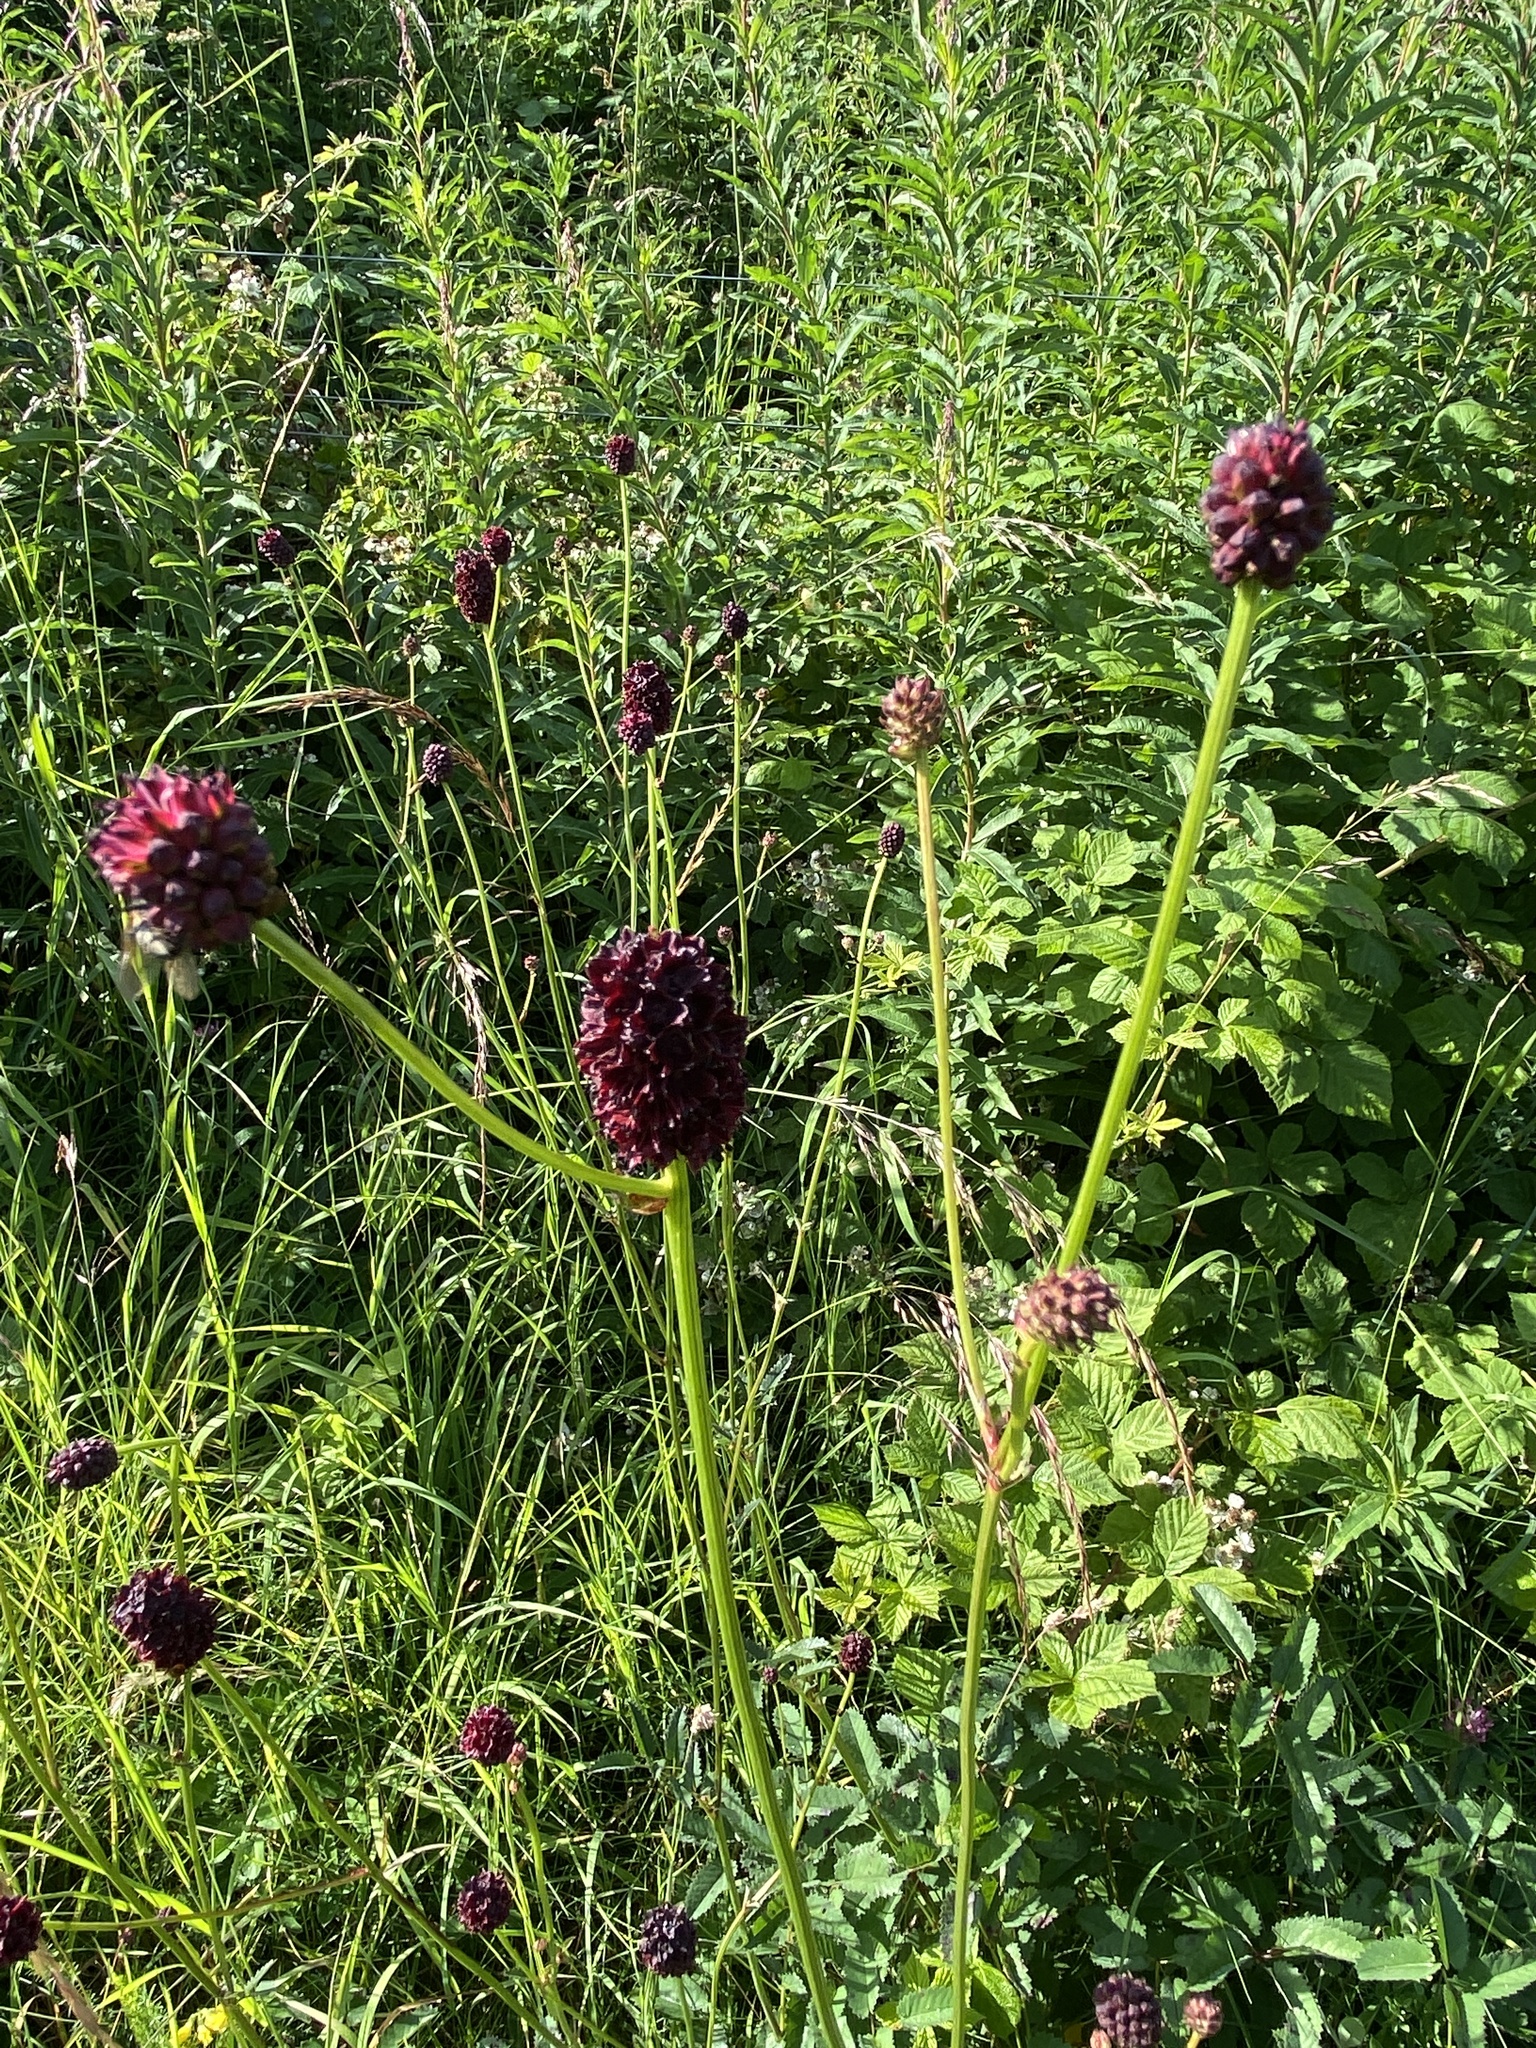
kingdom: Plantae
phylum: Tracheophyta
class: Magnoliopsida
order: Rosales
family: Rosaceae
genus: Sanguisorba
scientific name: Sanguisorba officinalis
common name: Great burnet
